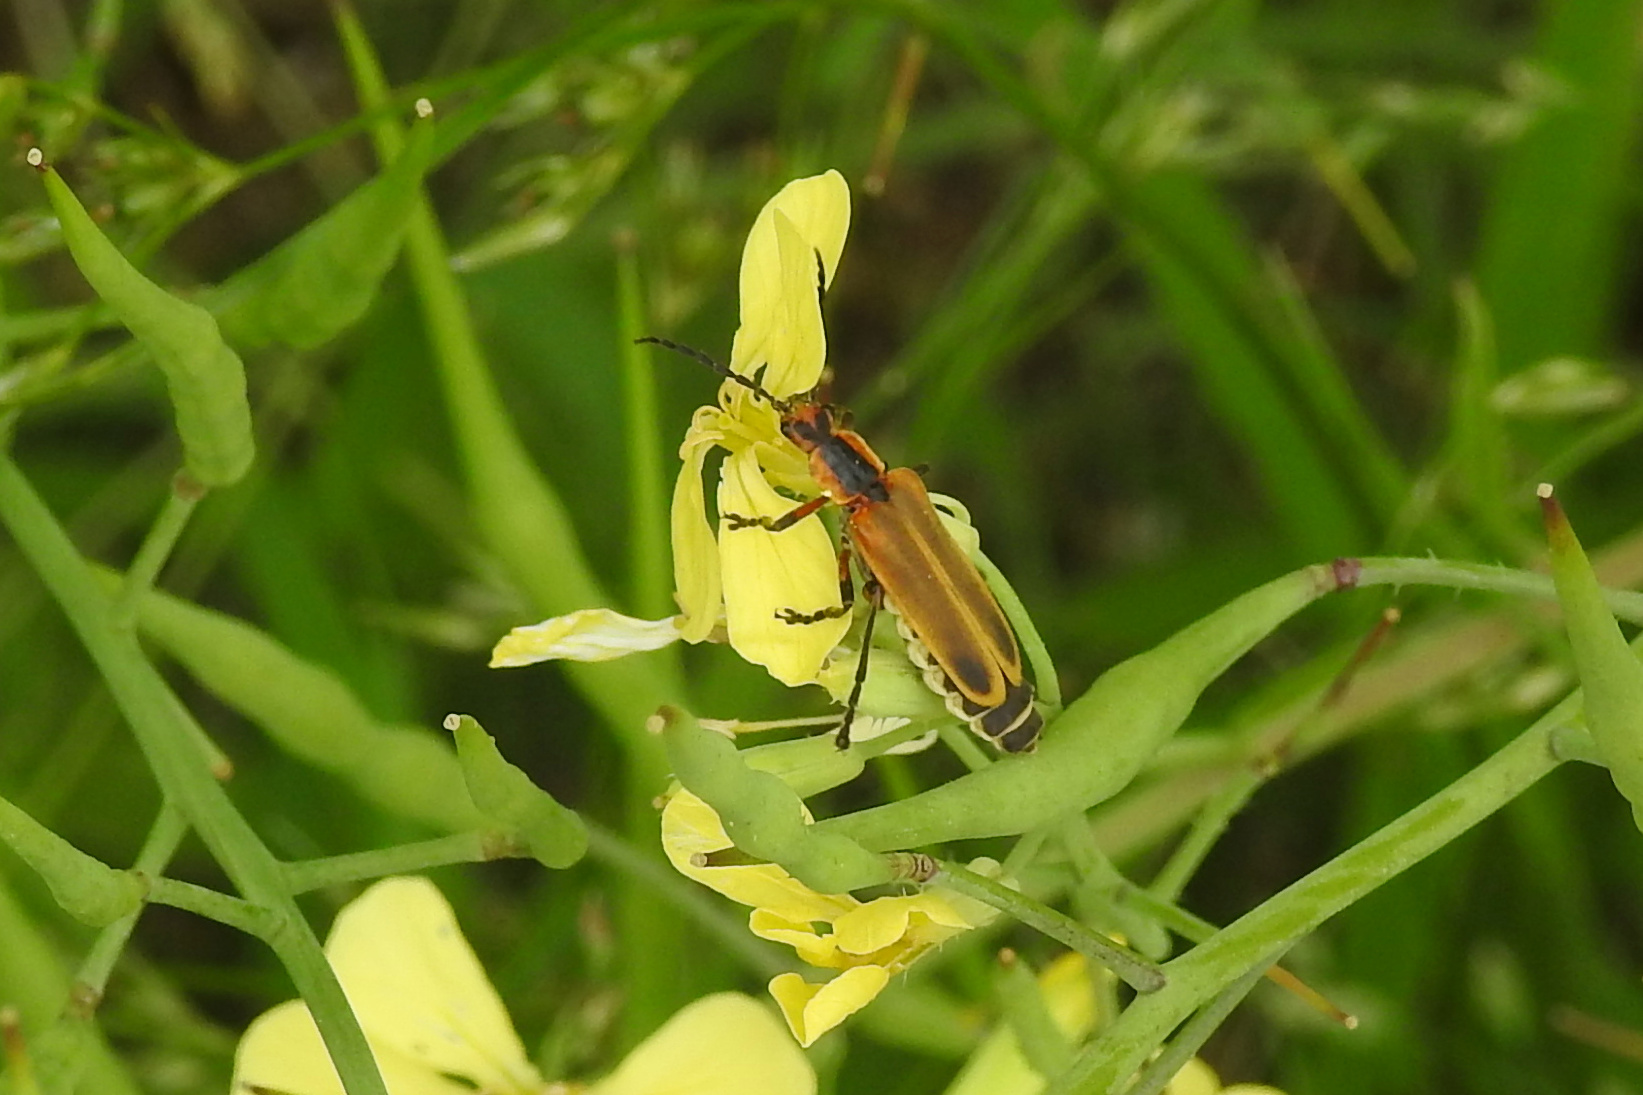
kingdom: Animalia
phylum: Arthropoda
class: Insecta
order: Coleoptera
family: Cantharidae
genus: Chauliognathus
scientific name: Chauliognathus marginatus
